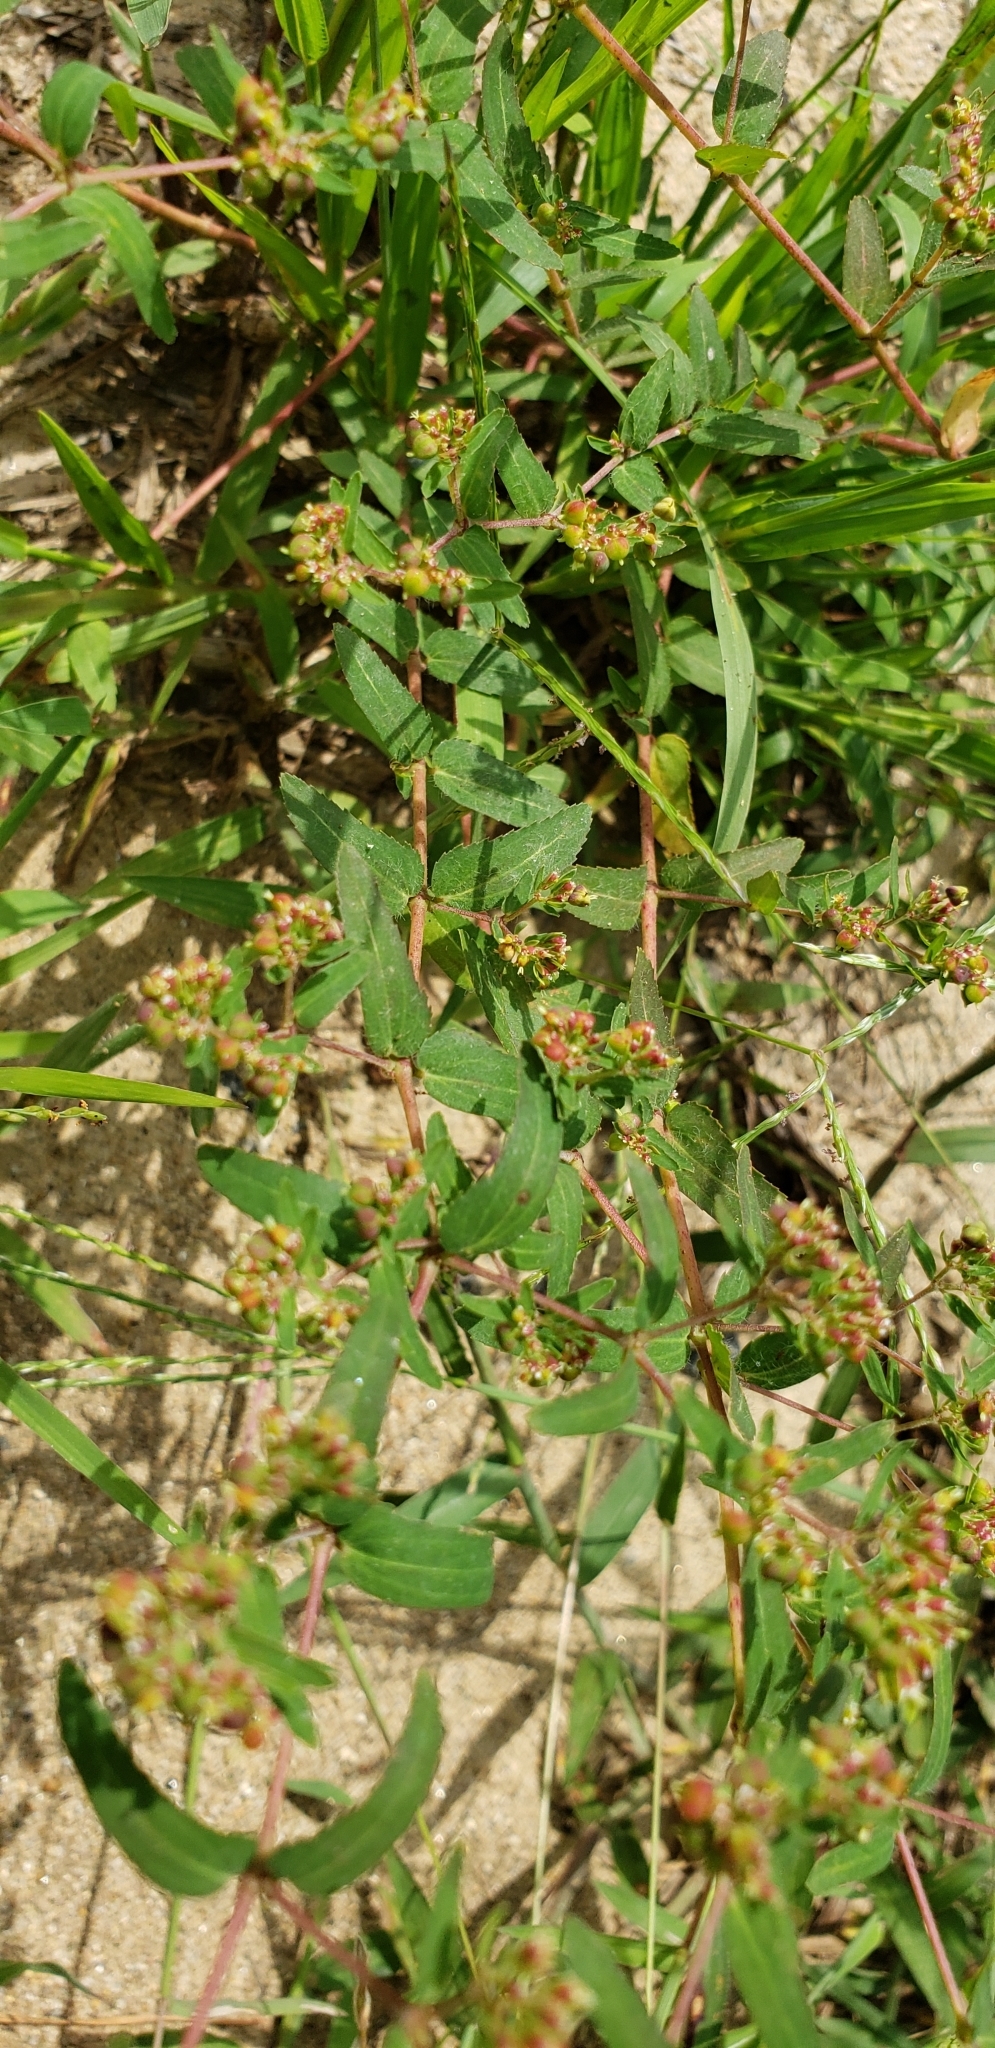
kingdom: Plantae
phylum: Tracheophyta
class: Magnoliopsida
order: Malpighiales
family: Euphorbiaceae
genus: Euphorbia
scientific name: Euphorbia nutans
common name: Eyebane
